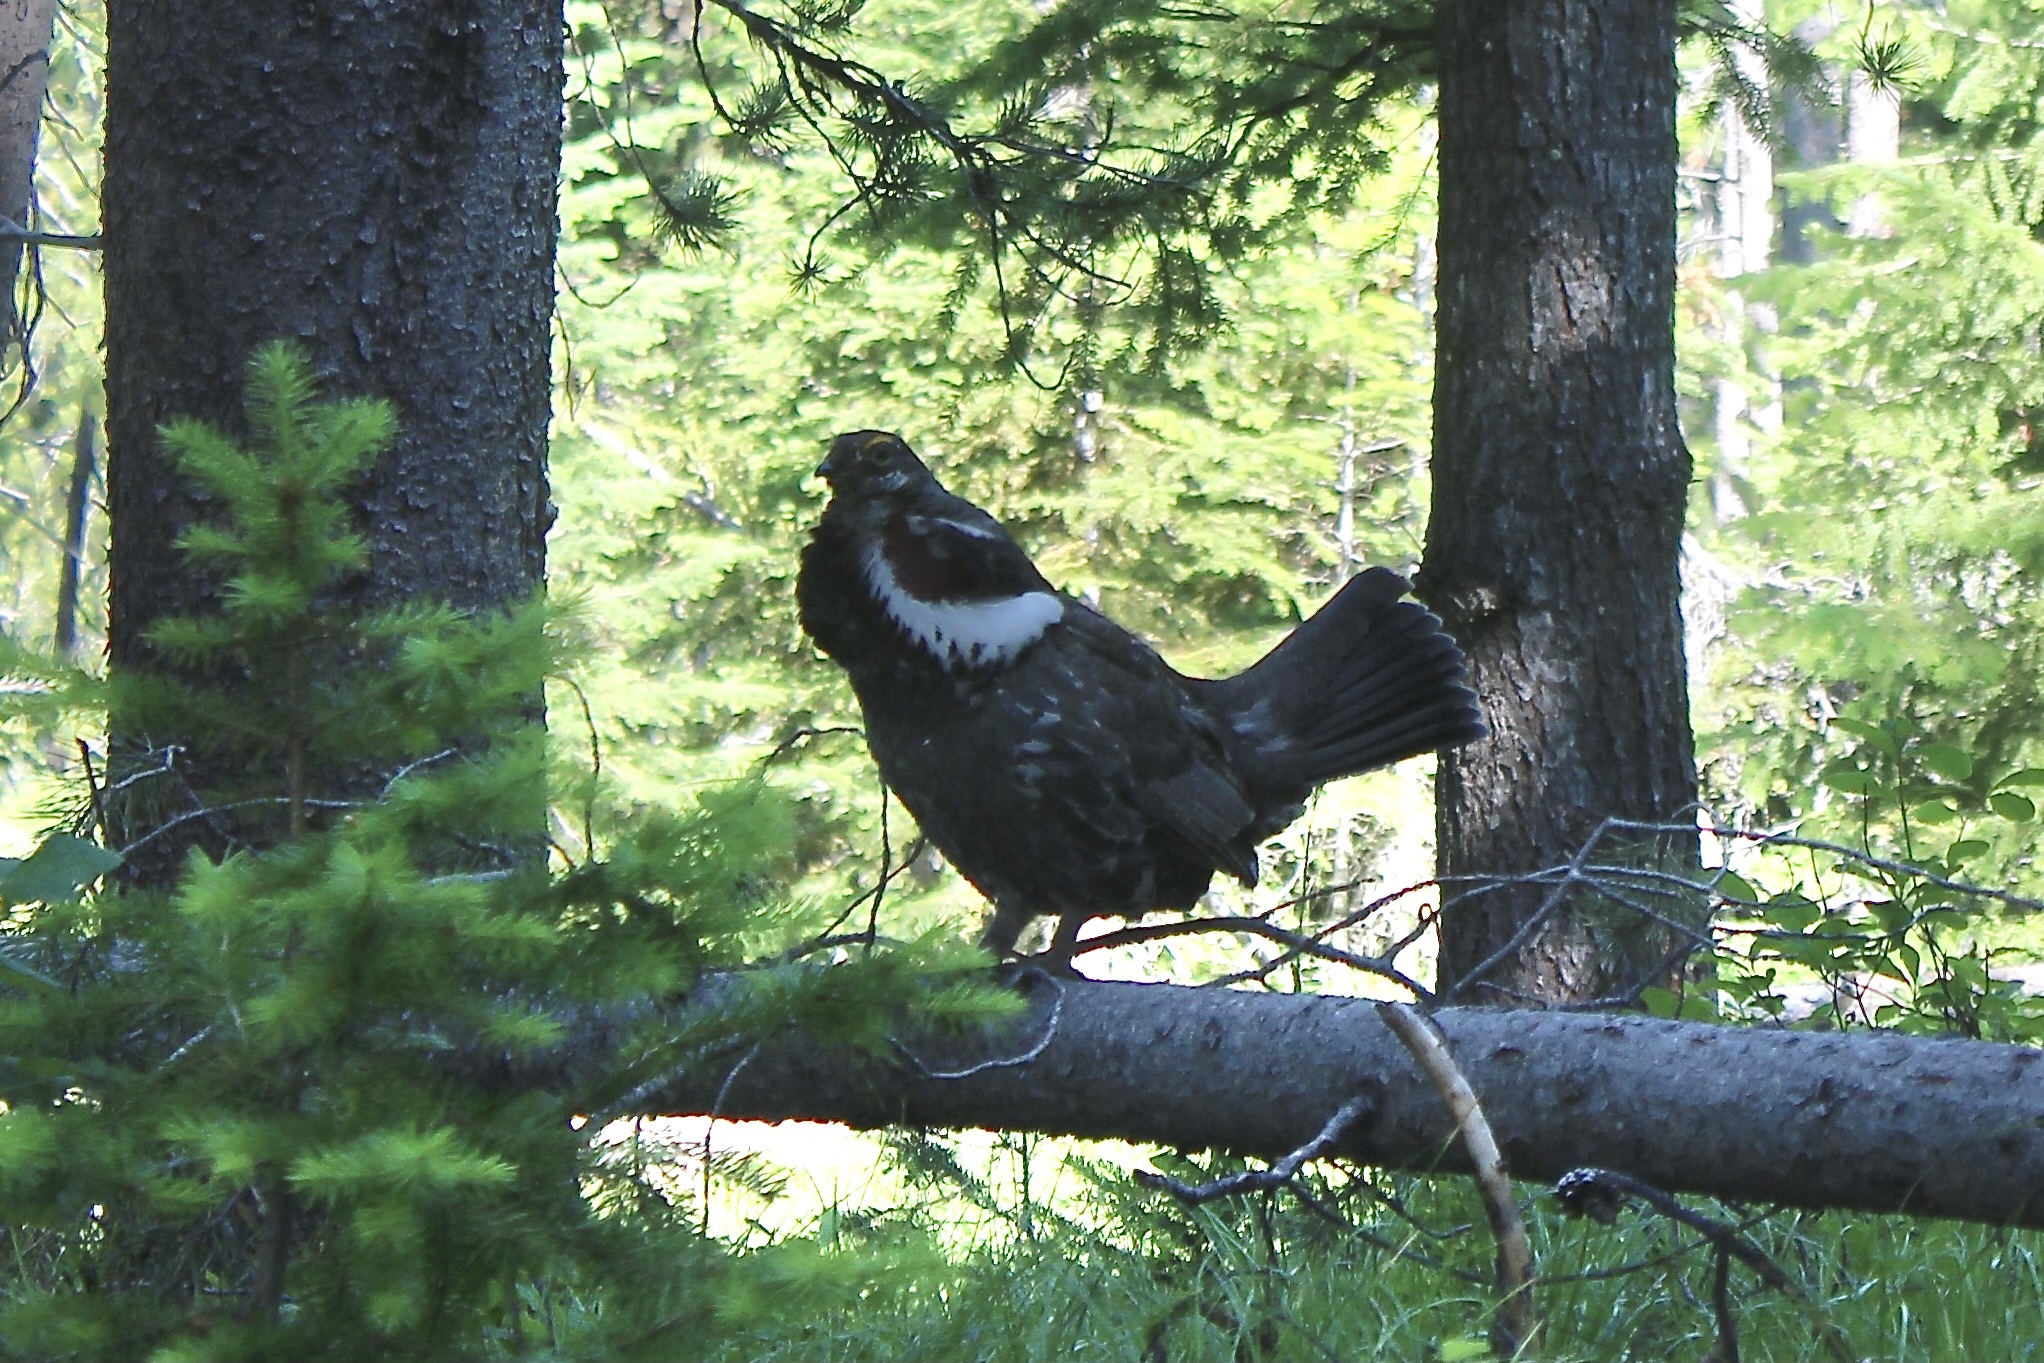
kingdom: Animalia
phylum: Chordata
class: Aves
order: Galliformes
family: Phasianidae
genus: Dendragapus
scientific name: Dendragapus obscurus
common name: Dusky grouse
